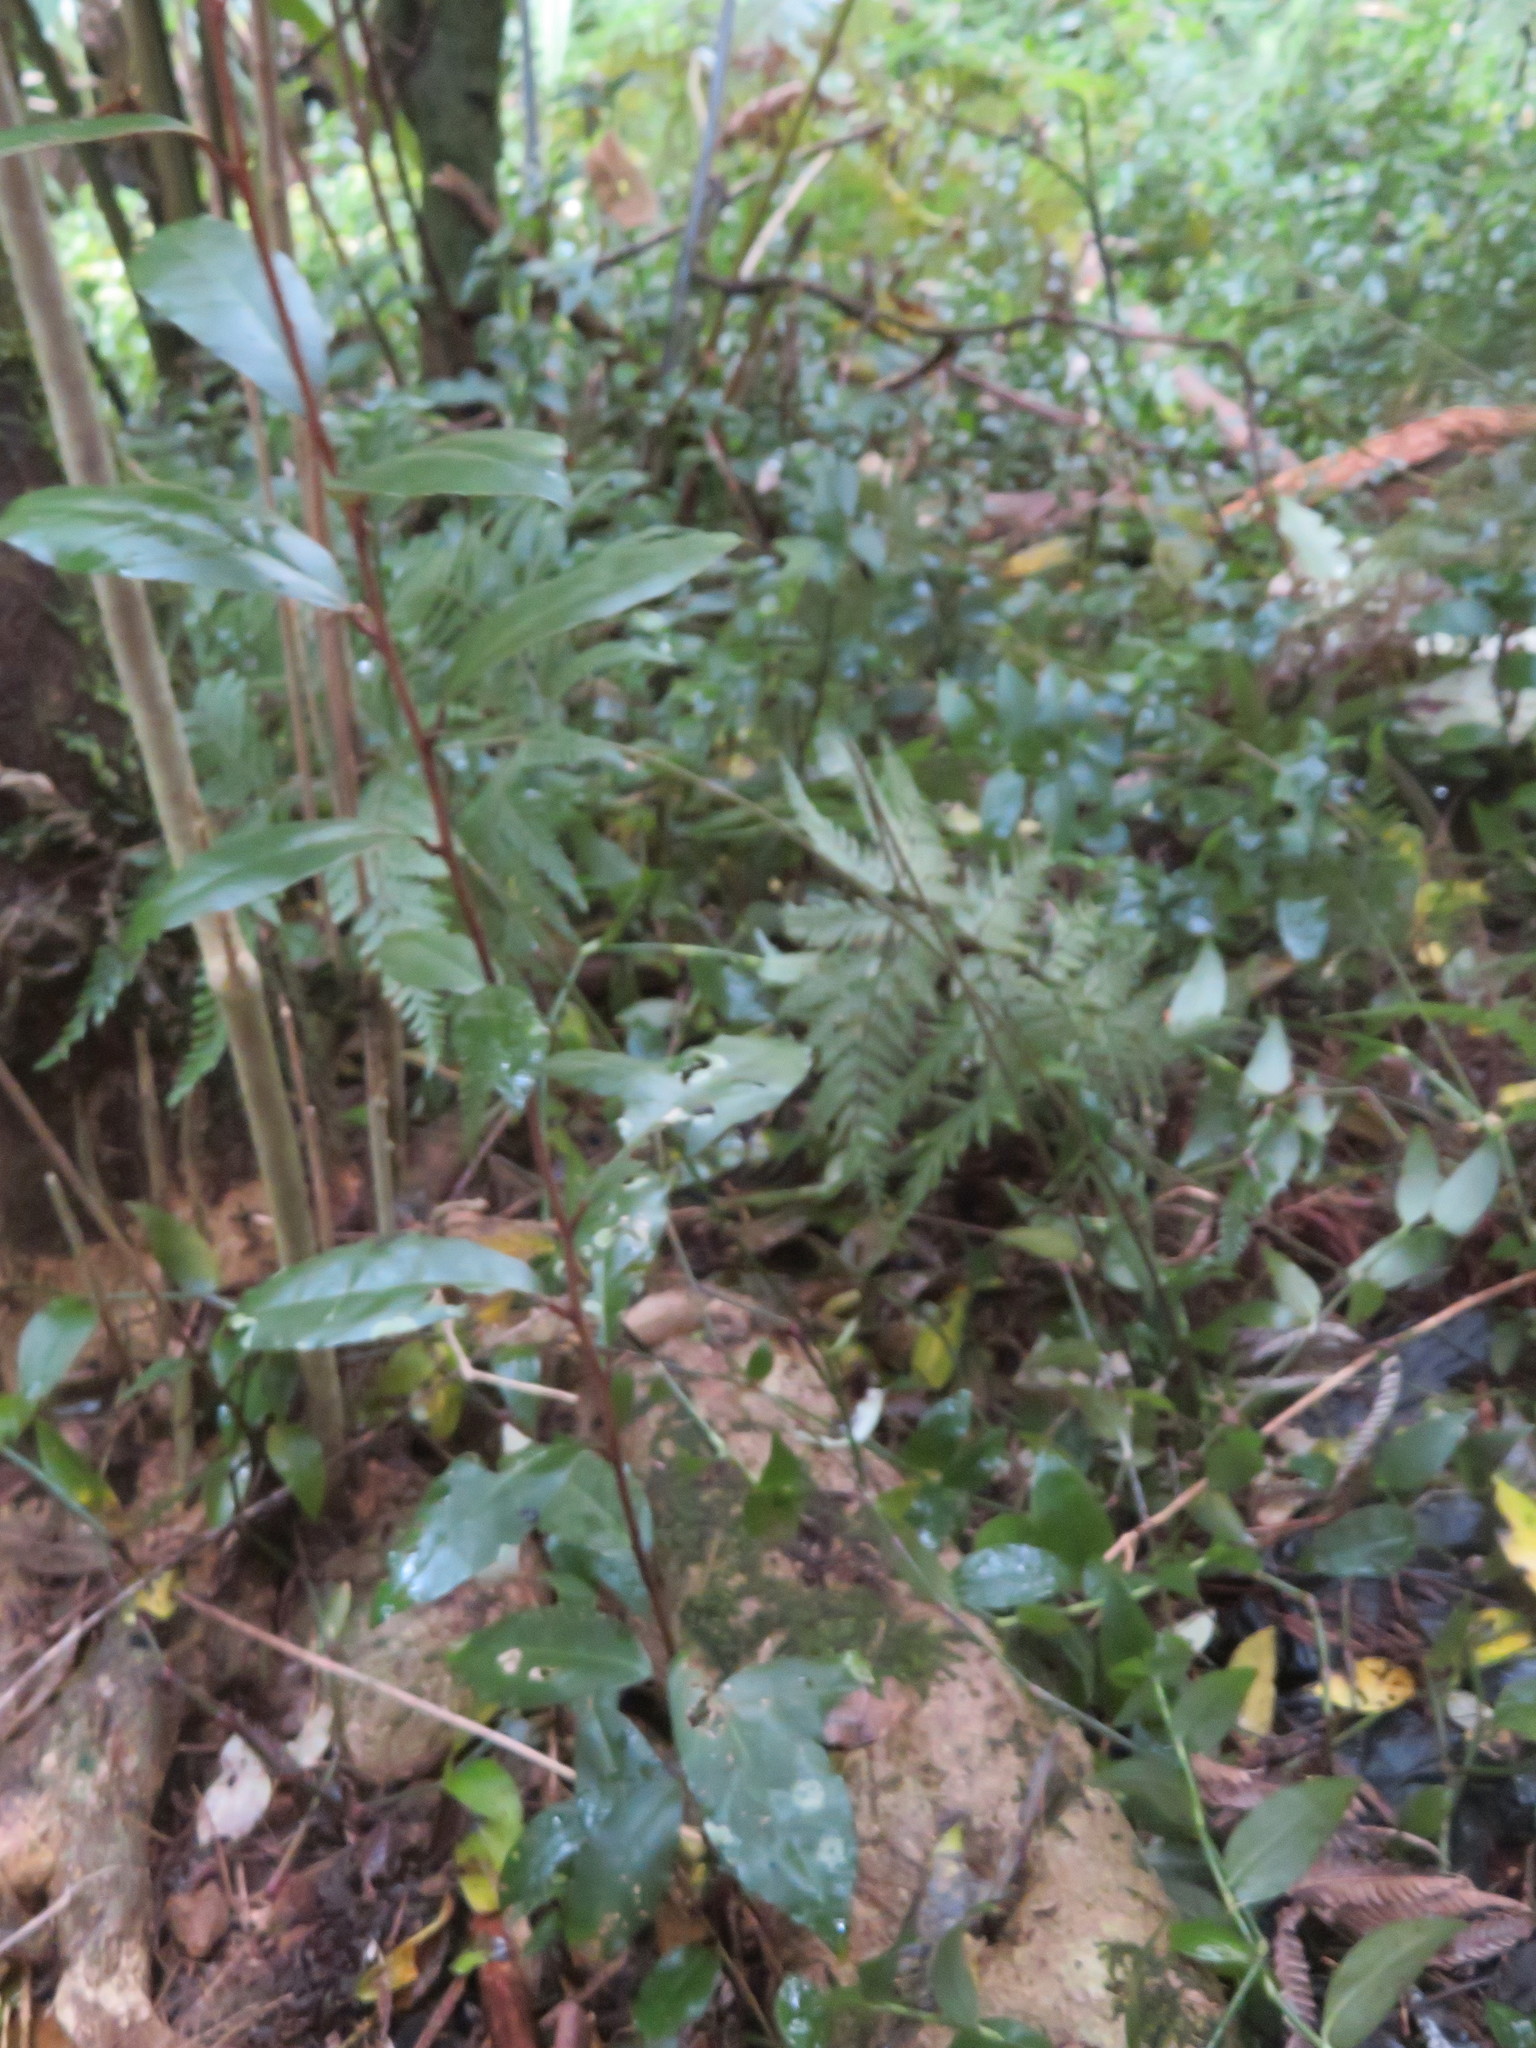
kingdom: Plantae
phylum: Tracheophyta
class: Magnoliopsida
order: Rosales
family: Elaeagnaceae
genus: Elaeagnus
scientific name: Elaeagnus reflexa
